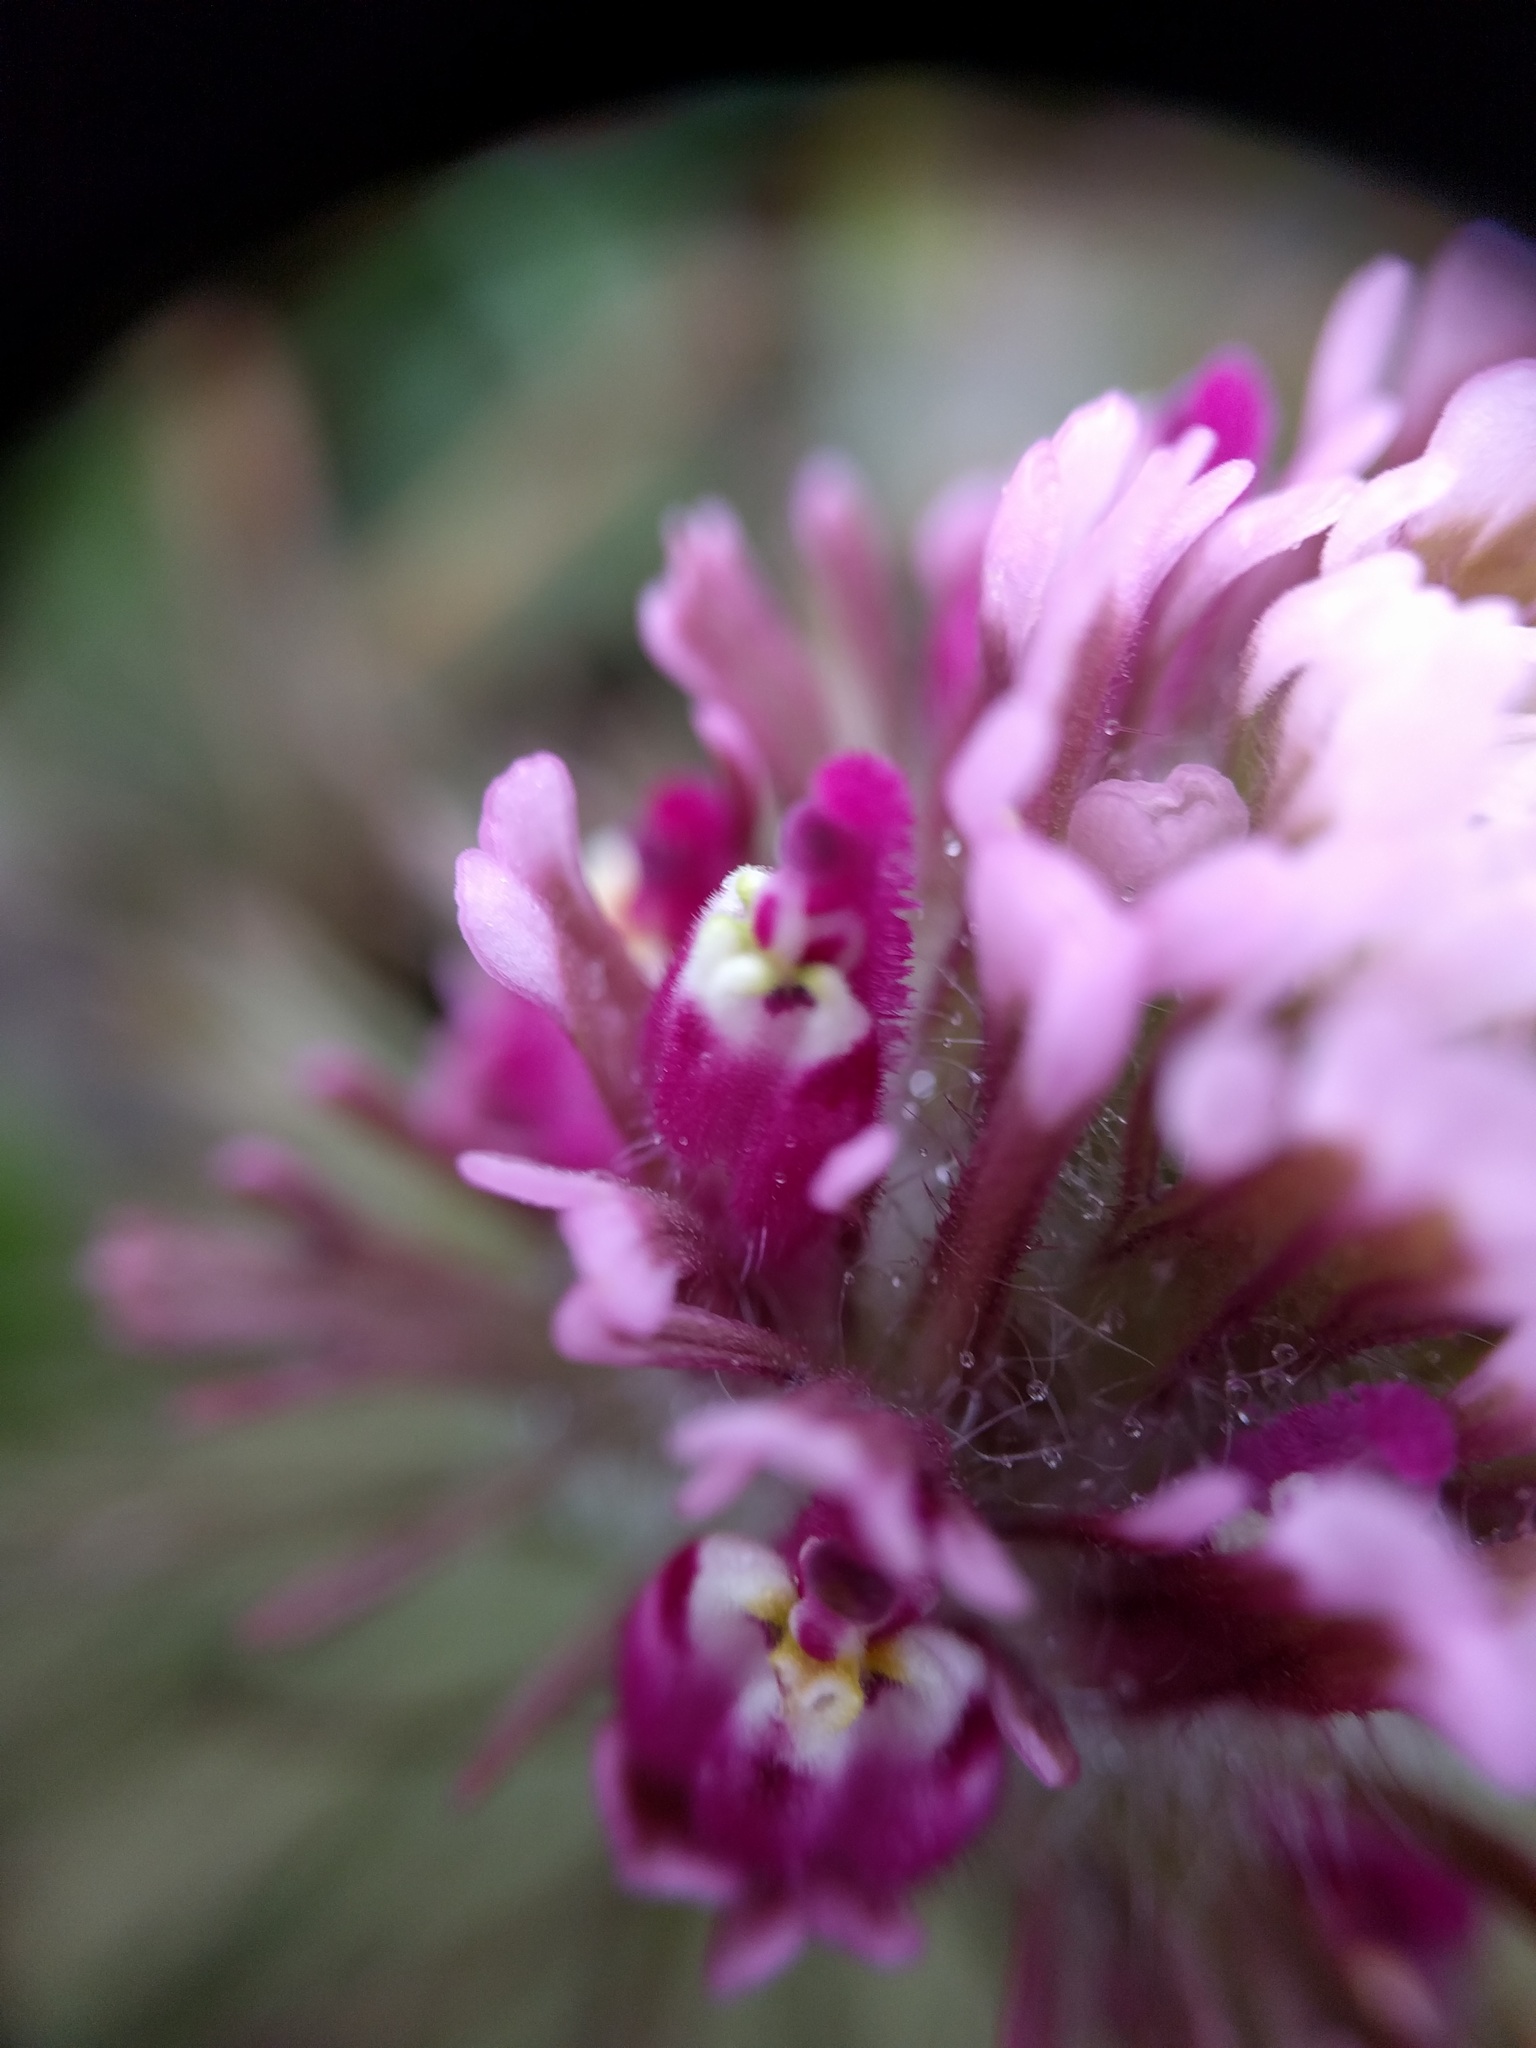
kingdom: Plantae
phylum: Tracheophyta
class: Magnoliopsida
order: Lamiales
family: Orobanchaceae
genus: Castilleja
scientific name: Castilleja exserta
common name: Purple owl-clover
